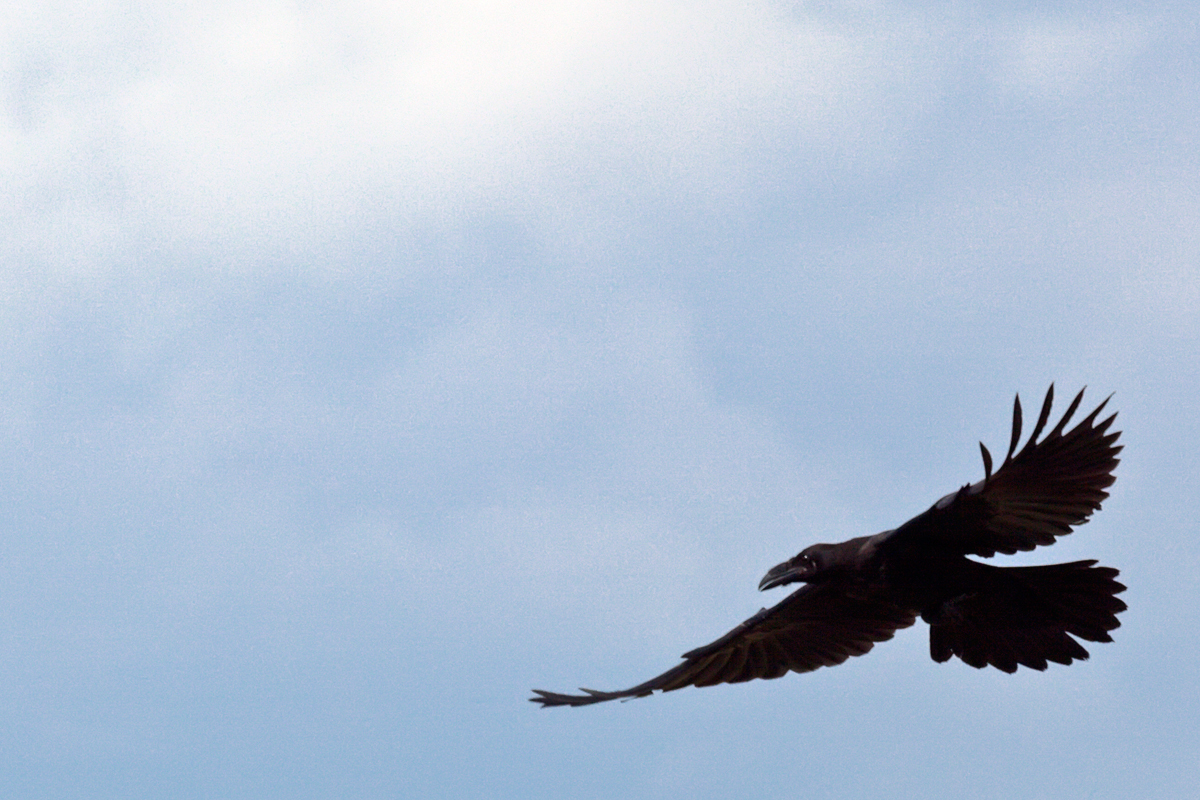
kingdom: Animalia
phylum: Chordata
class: Aves
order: Passeriformes
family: Corvidae
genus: Corvus
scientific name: Corvus corax
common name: Common raven
